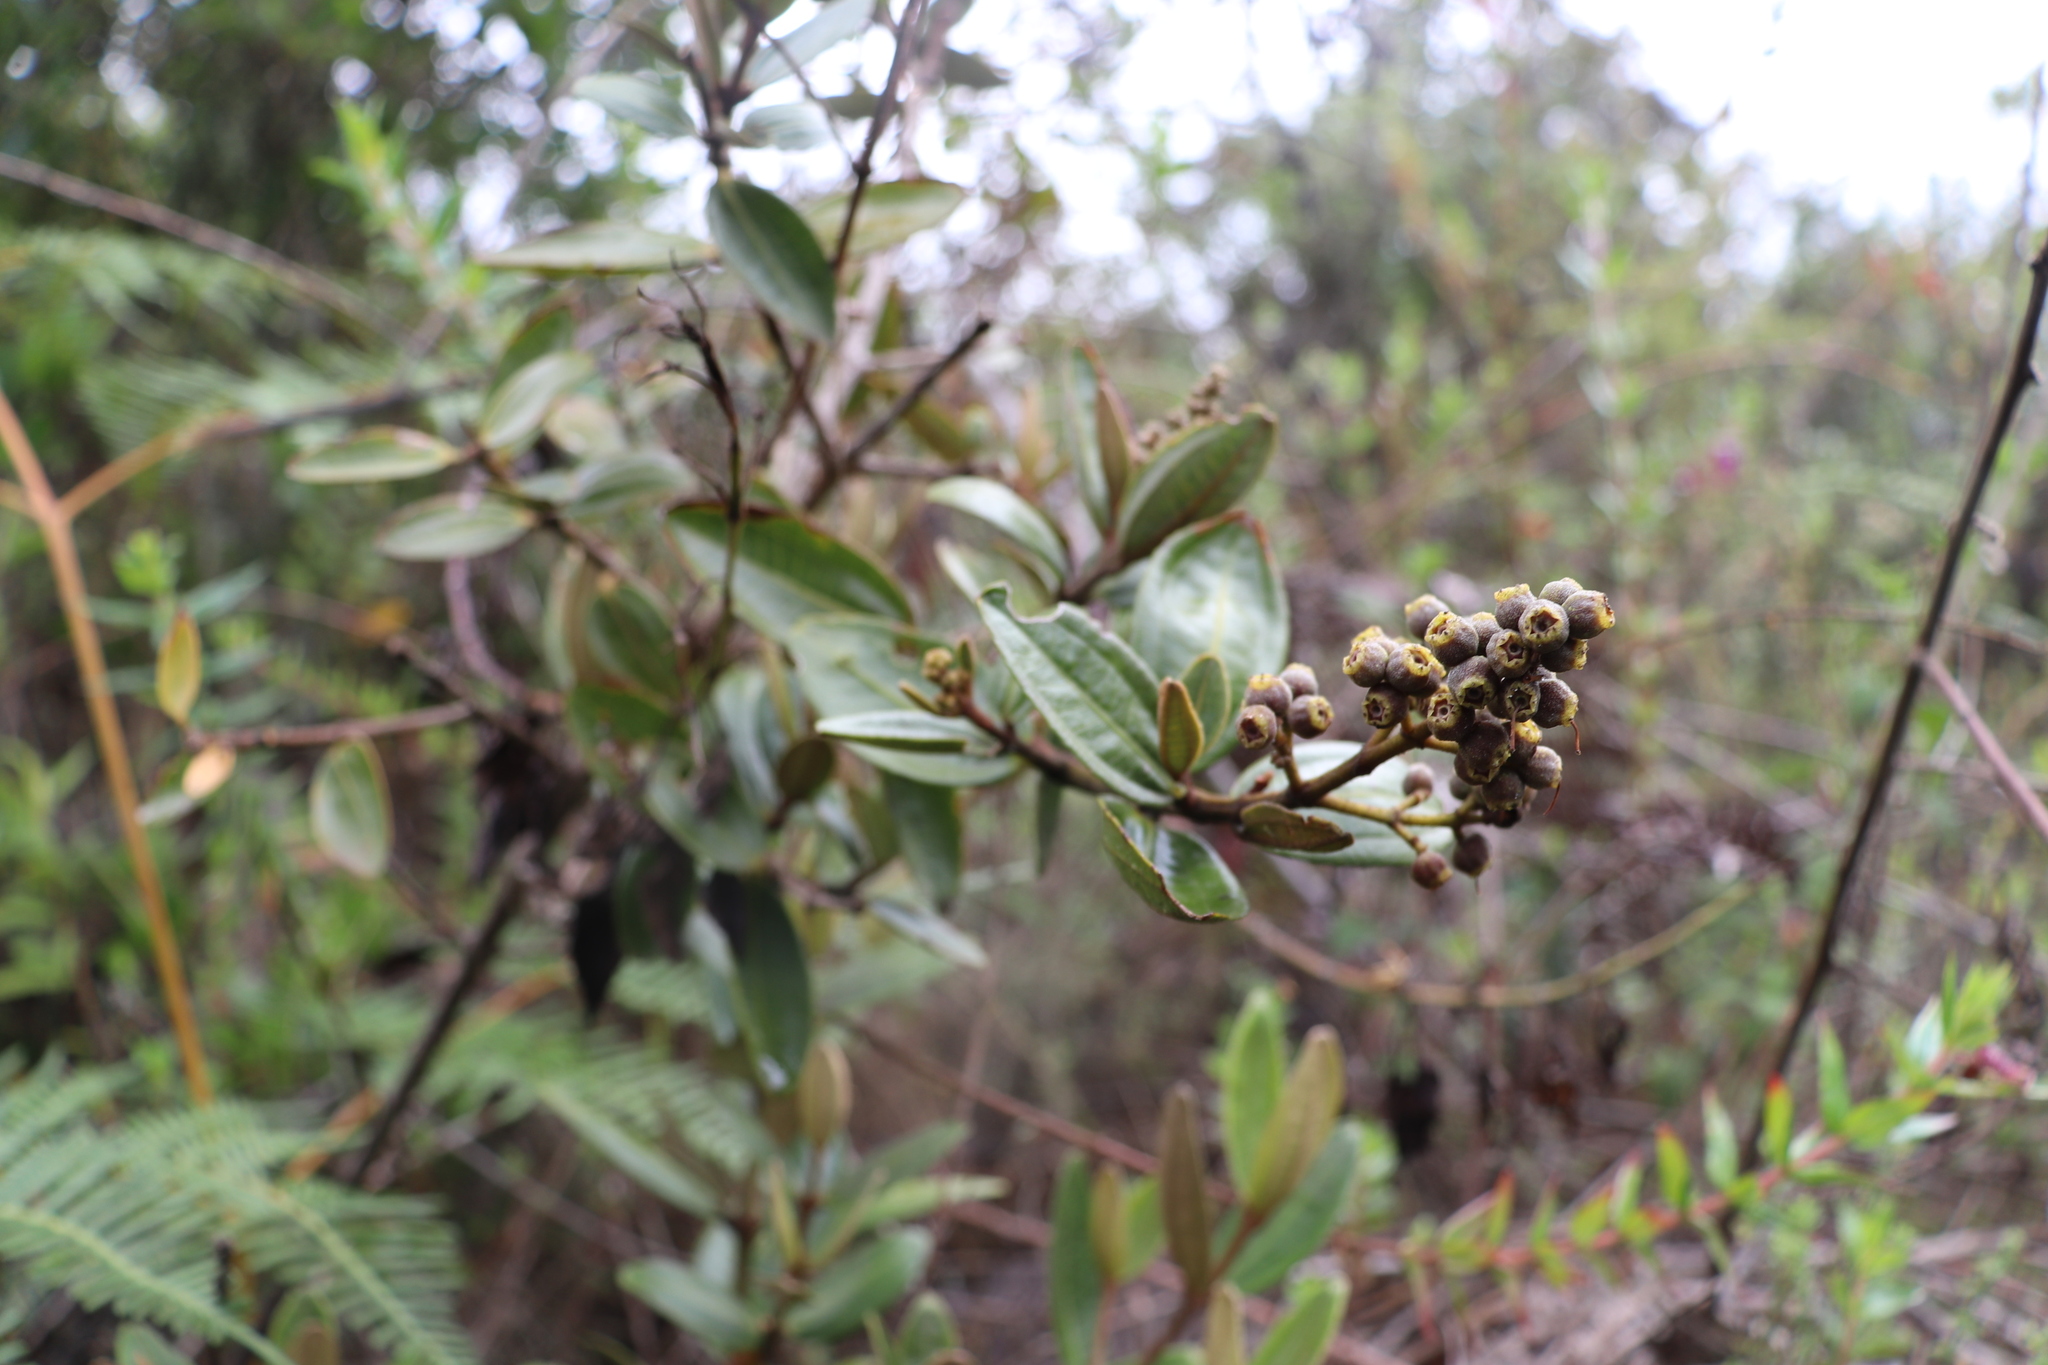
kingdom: Plantae
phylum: Tracheophyta
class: Magnoliopsida
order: Myrtales
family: Melastomataceae
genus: Miconia
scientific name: Miconia squamulosa
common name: Squamulose maya
